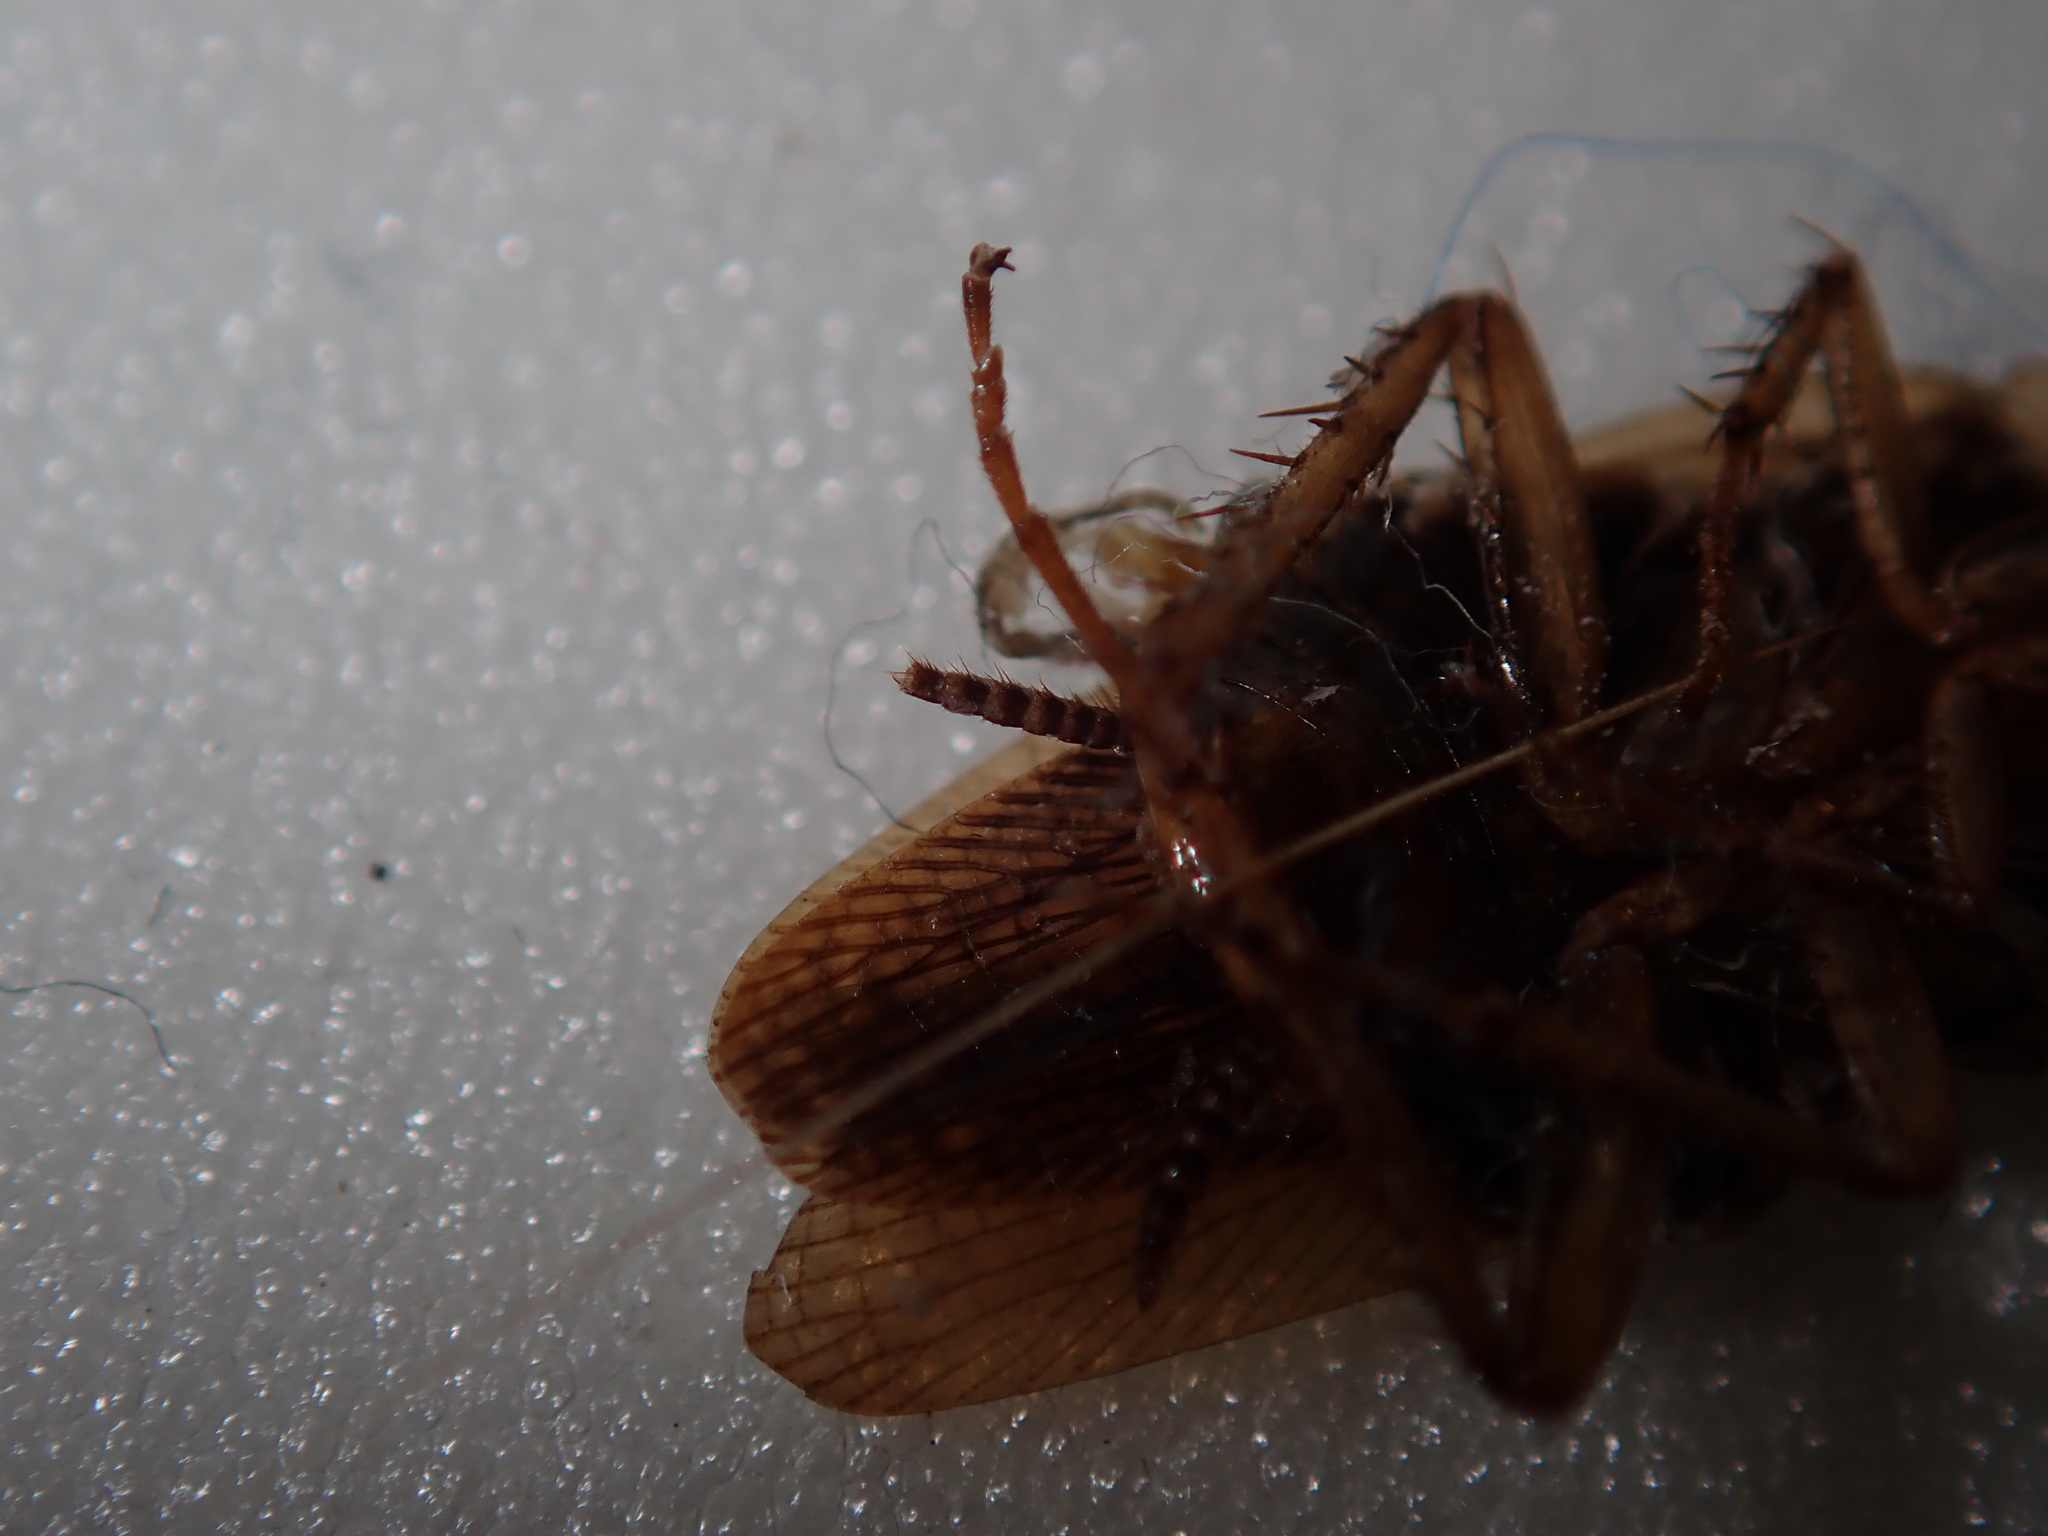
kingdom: Animalia
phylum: Arthropoda
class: Insecta
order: Blattodea
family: Ectobiidae
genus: Blattella
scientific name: Blattella germanica
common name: German cockroach
